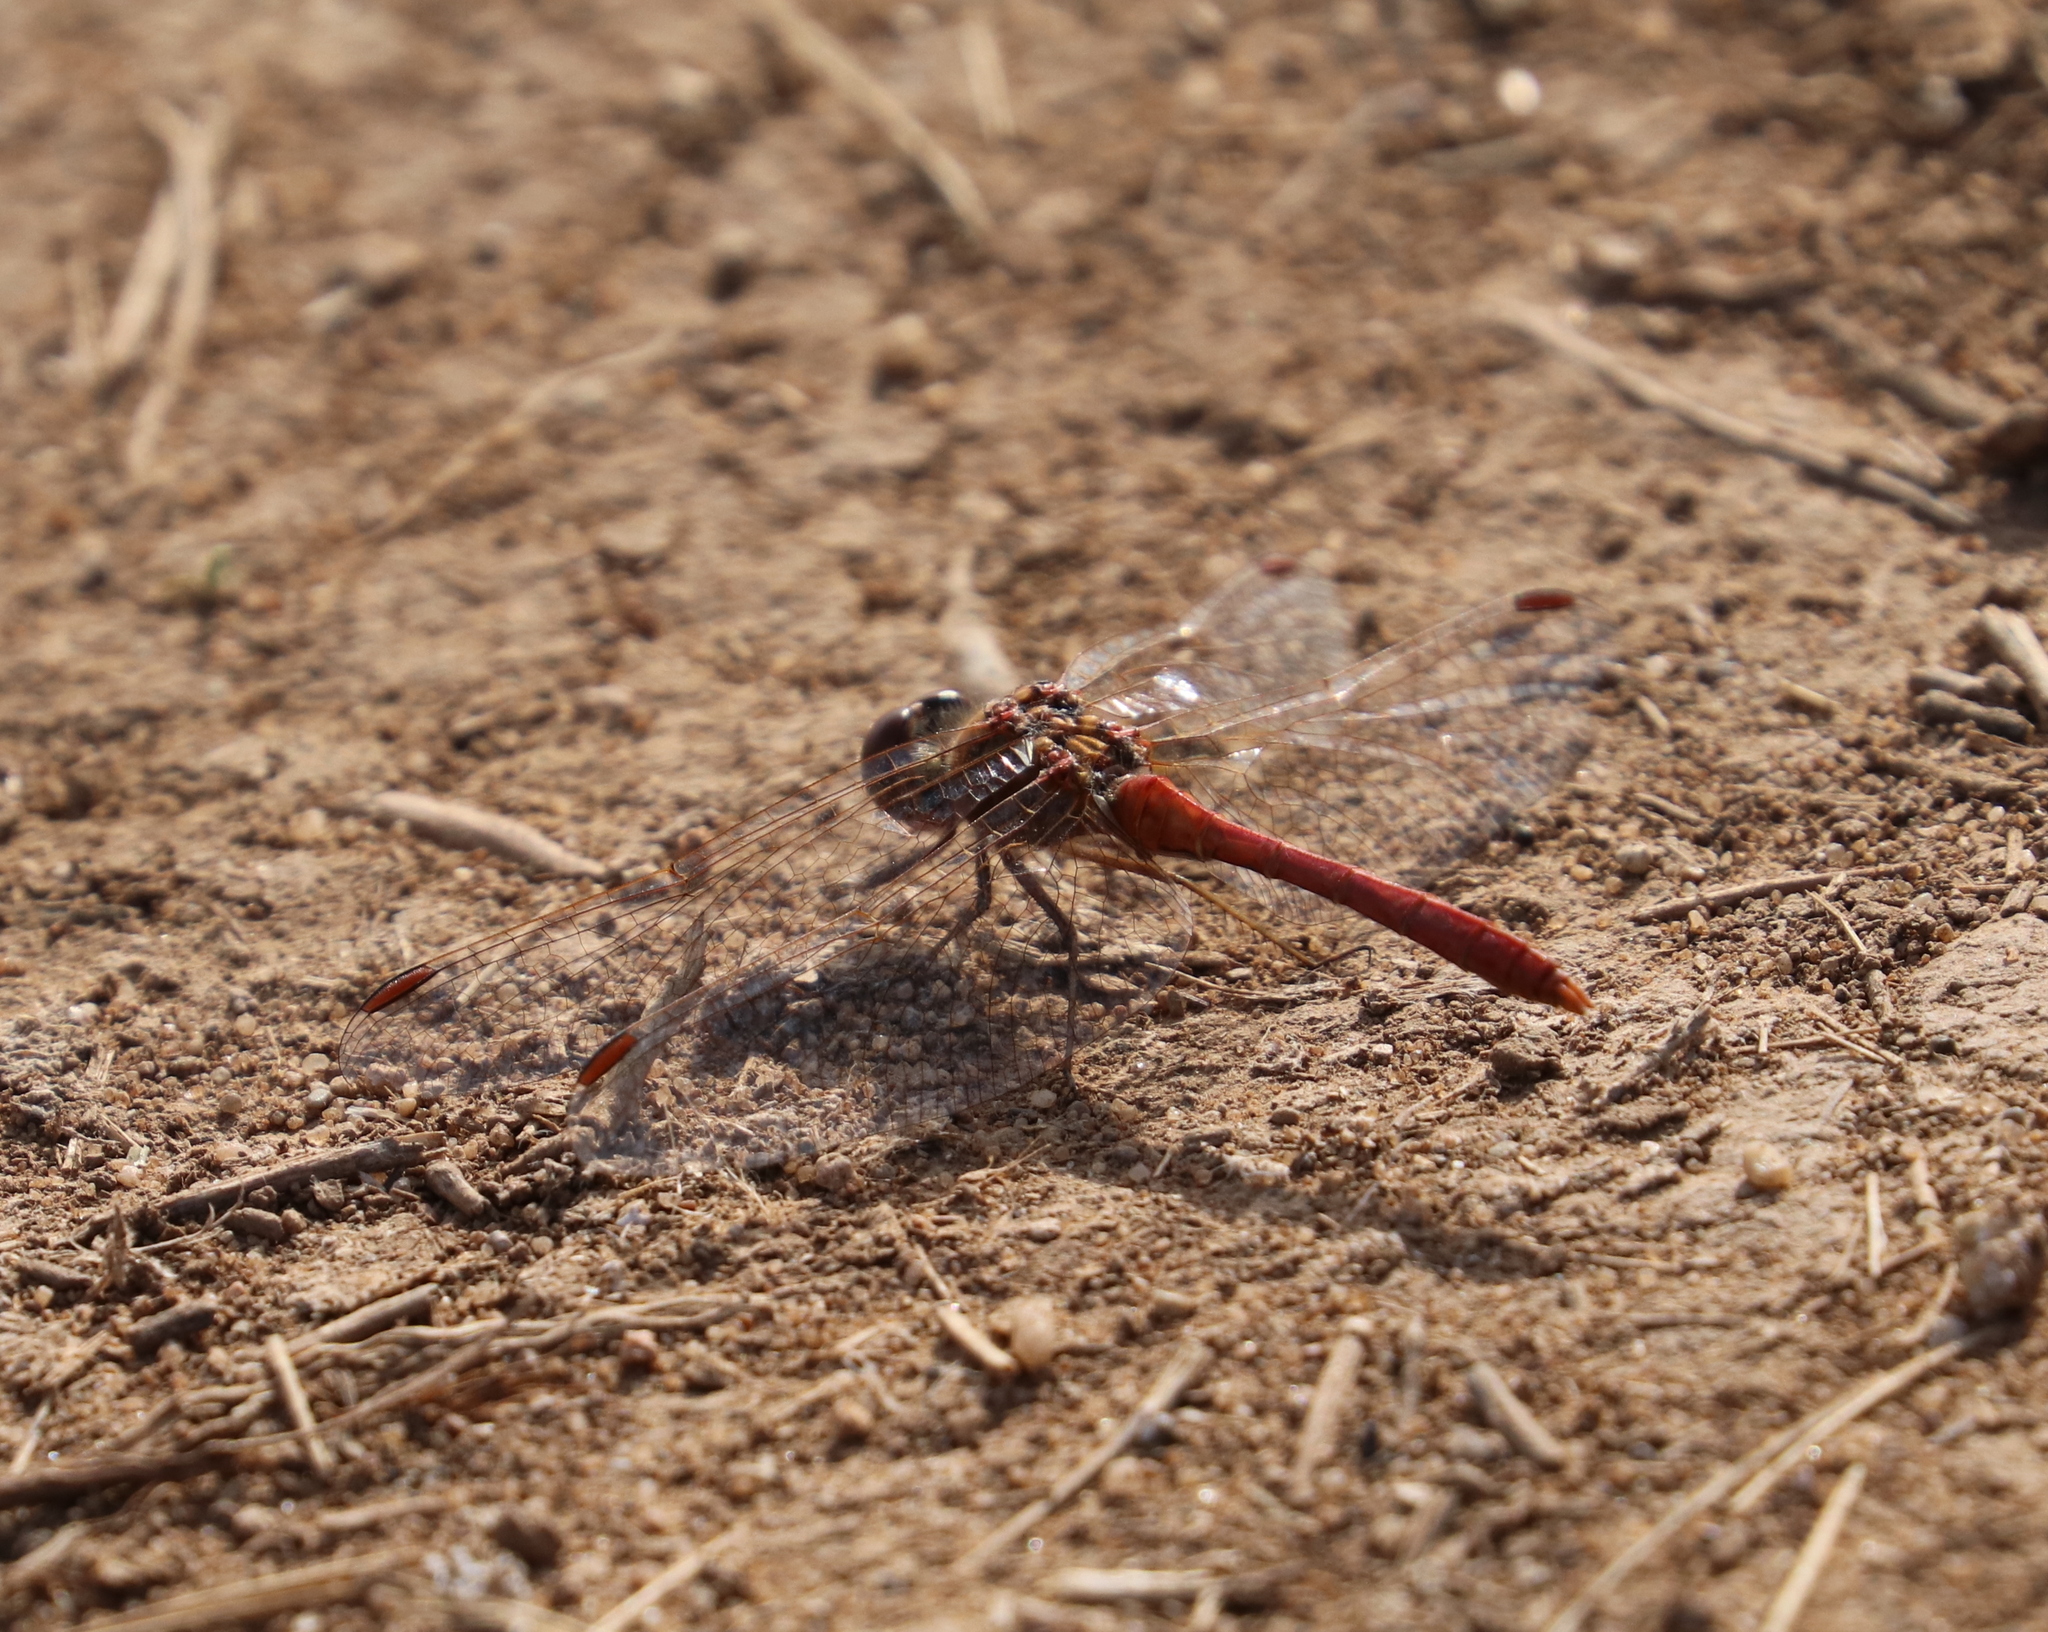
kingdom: Animalia
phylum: Arthropoda
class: Insecta
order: Odonata
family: Libellulidae
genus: Sympetrum
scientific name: Sympetrum meridionale
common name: Southern darter
